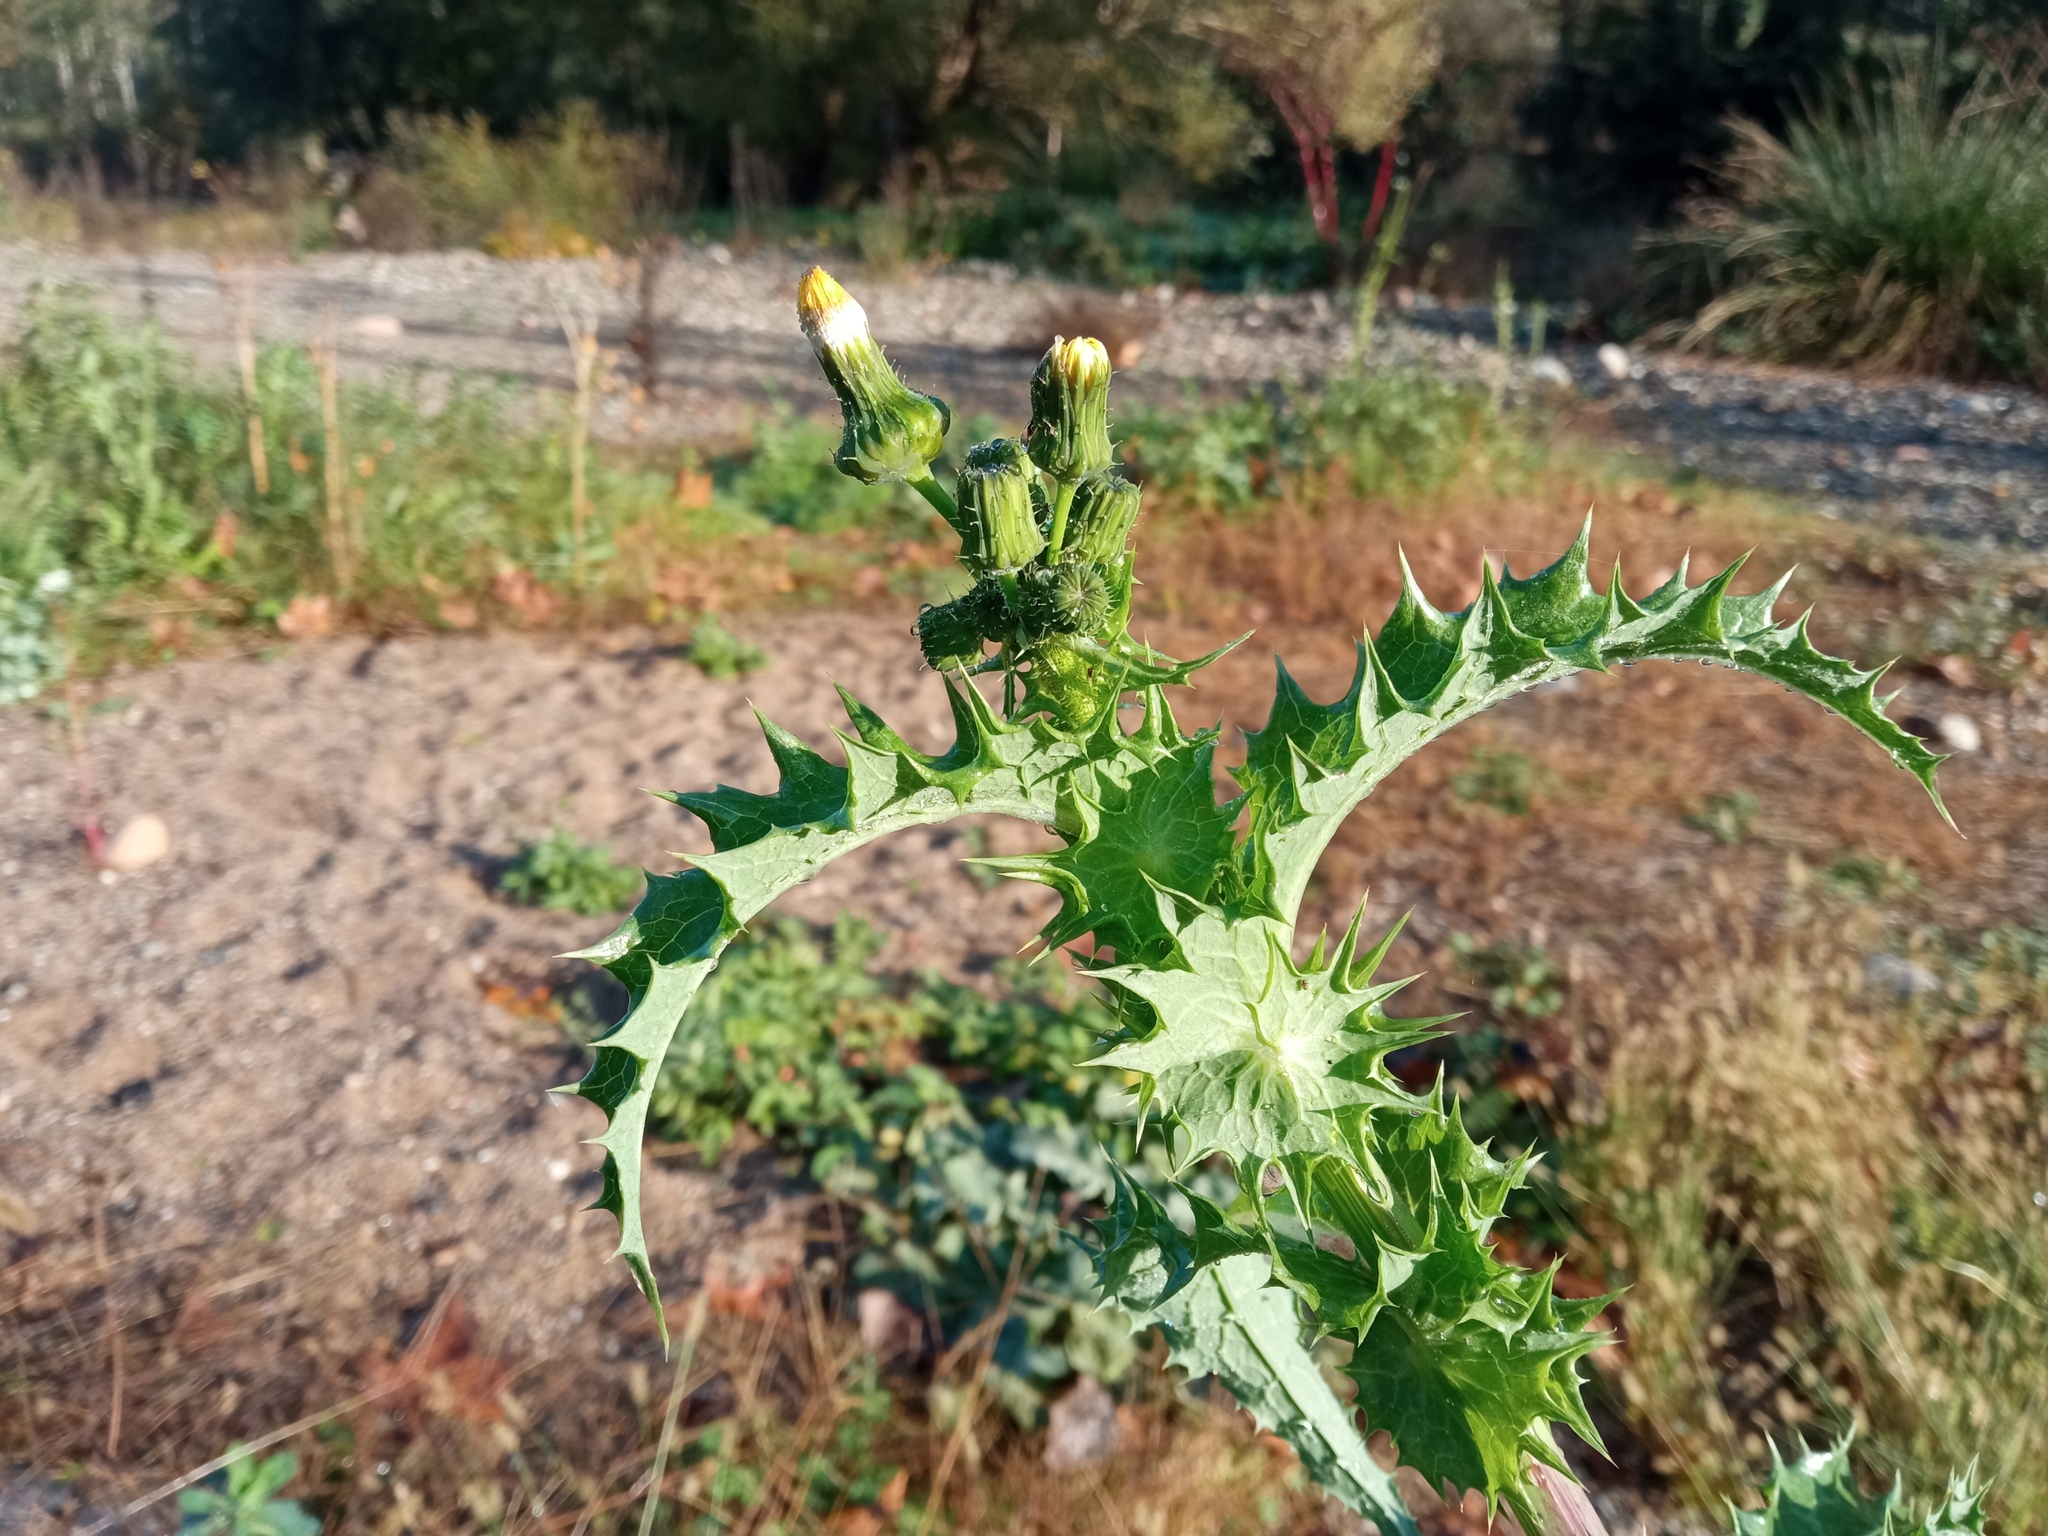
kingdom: Plantae
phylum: Tracheophyta
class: Magnoliopsida
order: Asterales
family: Asteraceae
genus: Sonchus
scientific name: Sonchus asper
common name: Prickly sow-thistle
